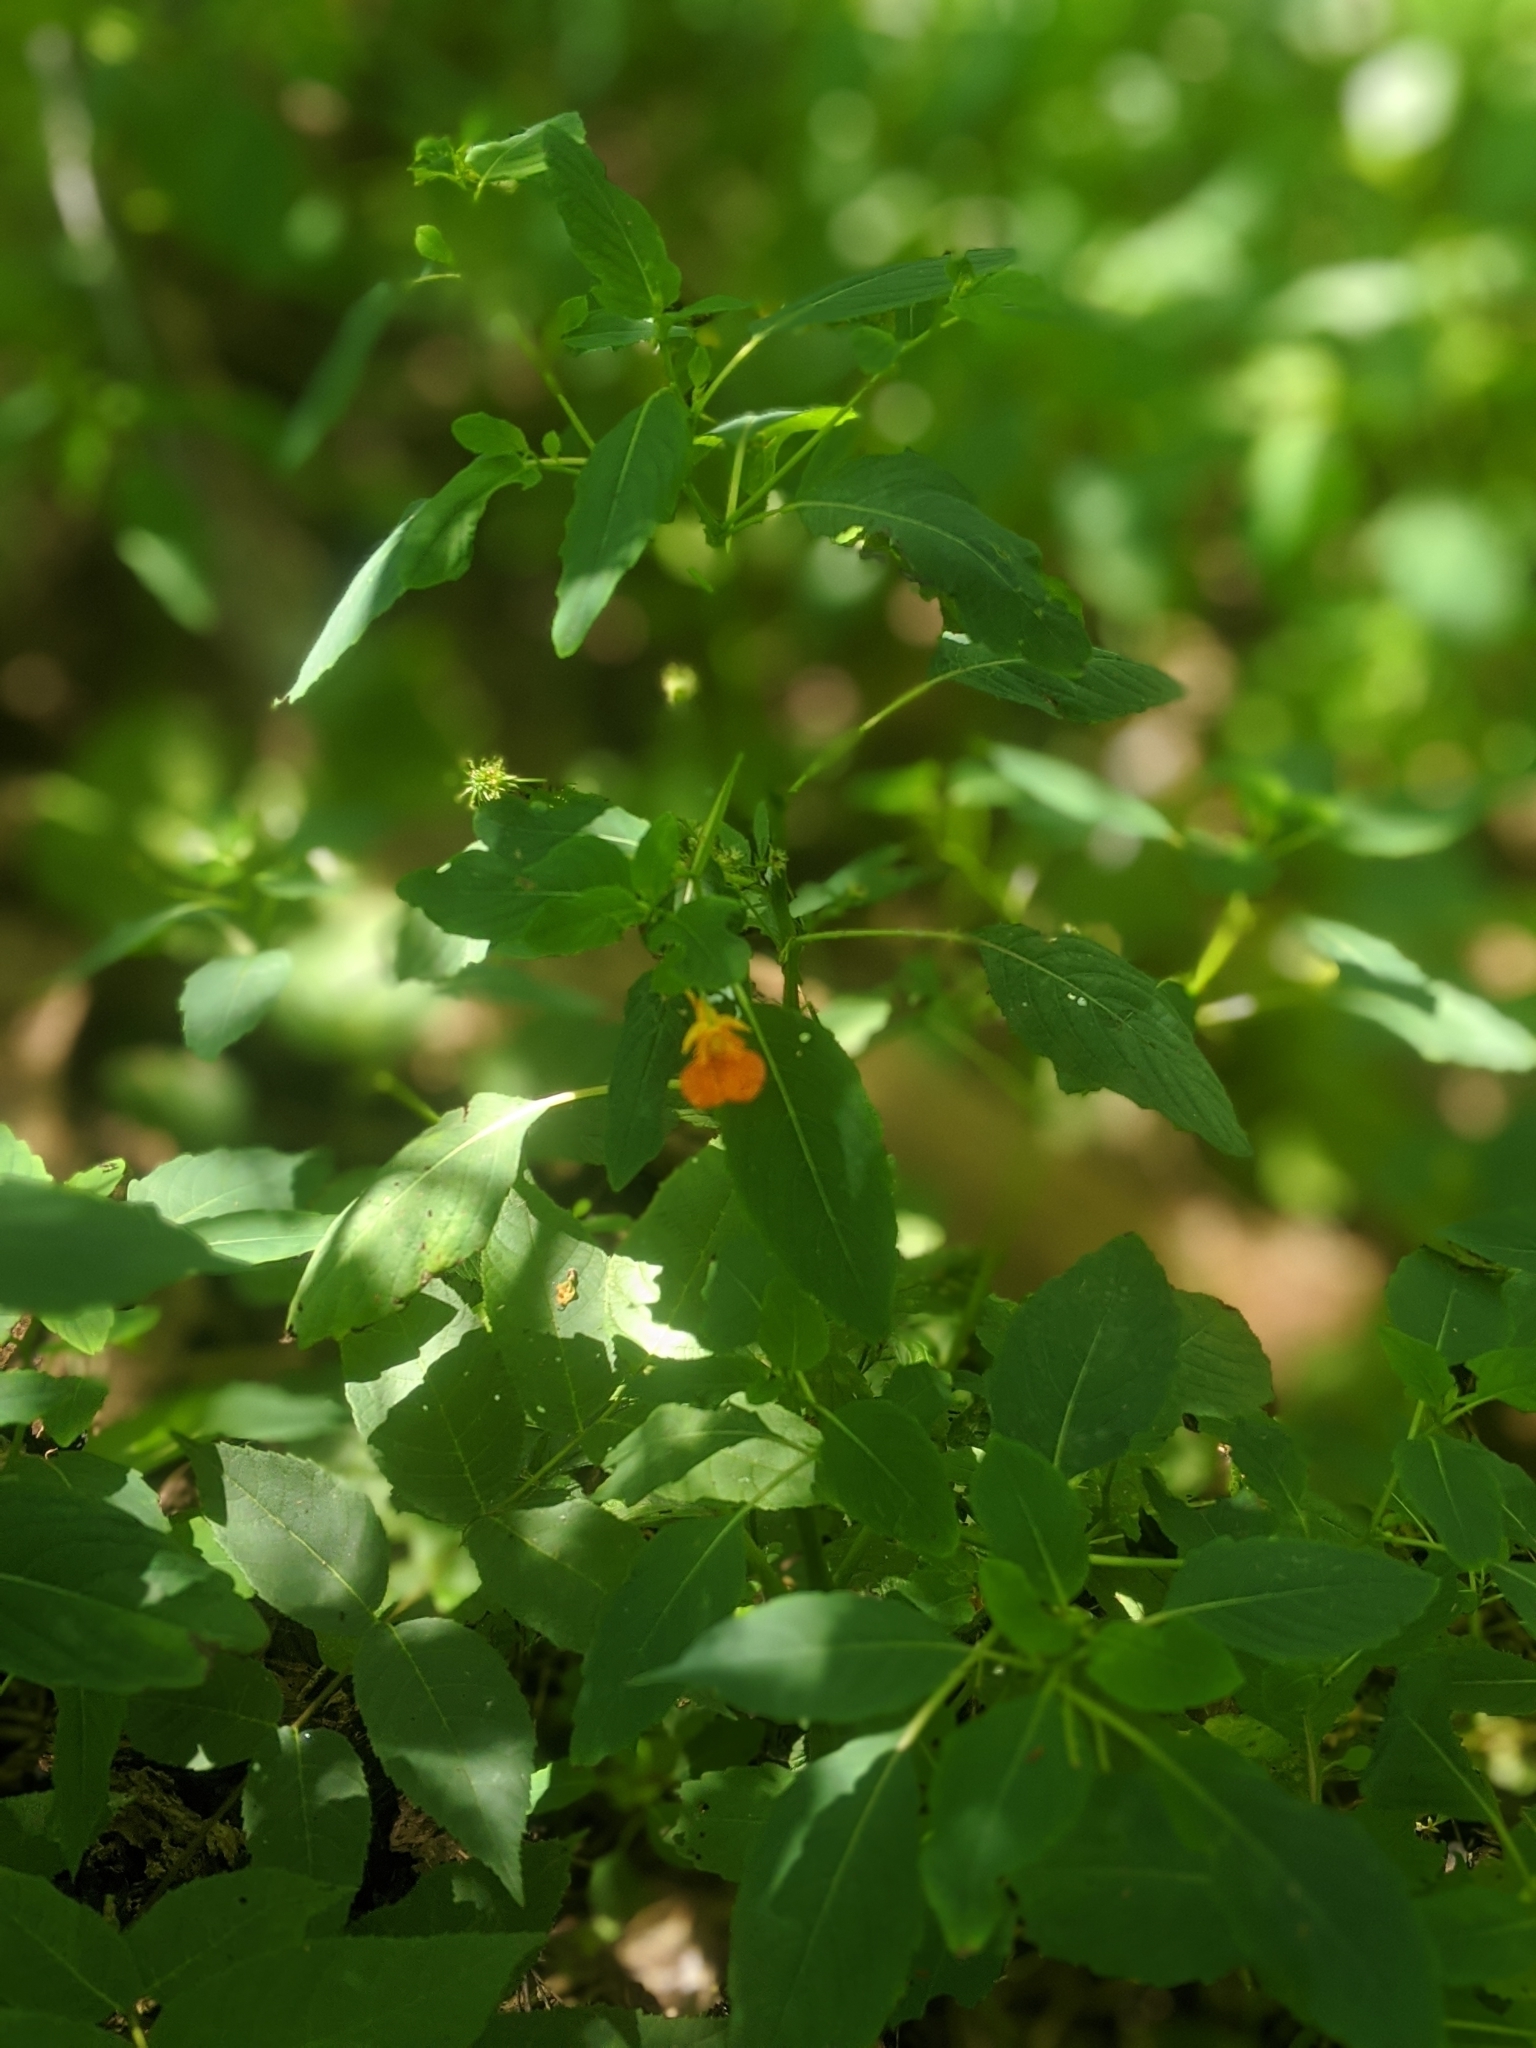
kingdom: Plantae
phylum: Tracheophyta
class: Magnoliopsida
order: Ericales
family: Balsaminaceae
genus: Impatiens
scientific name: Impatiens capensis
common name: Orange balsam
